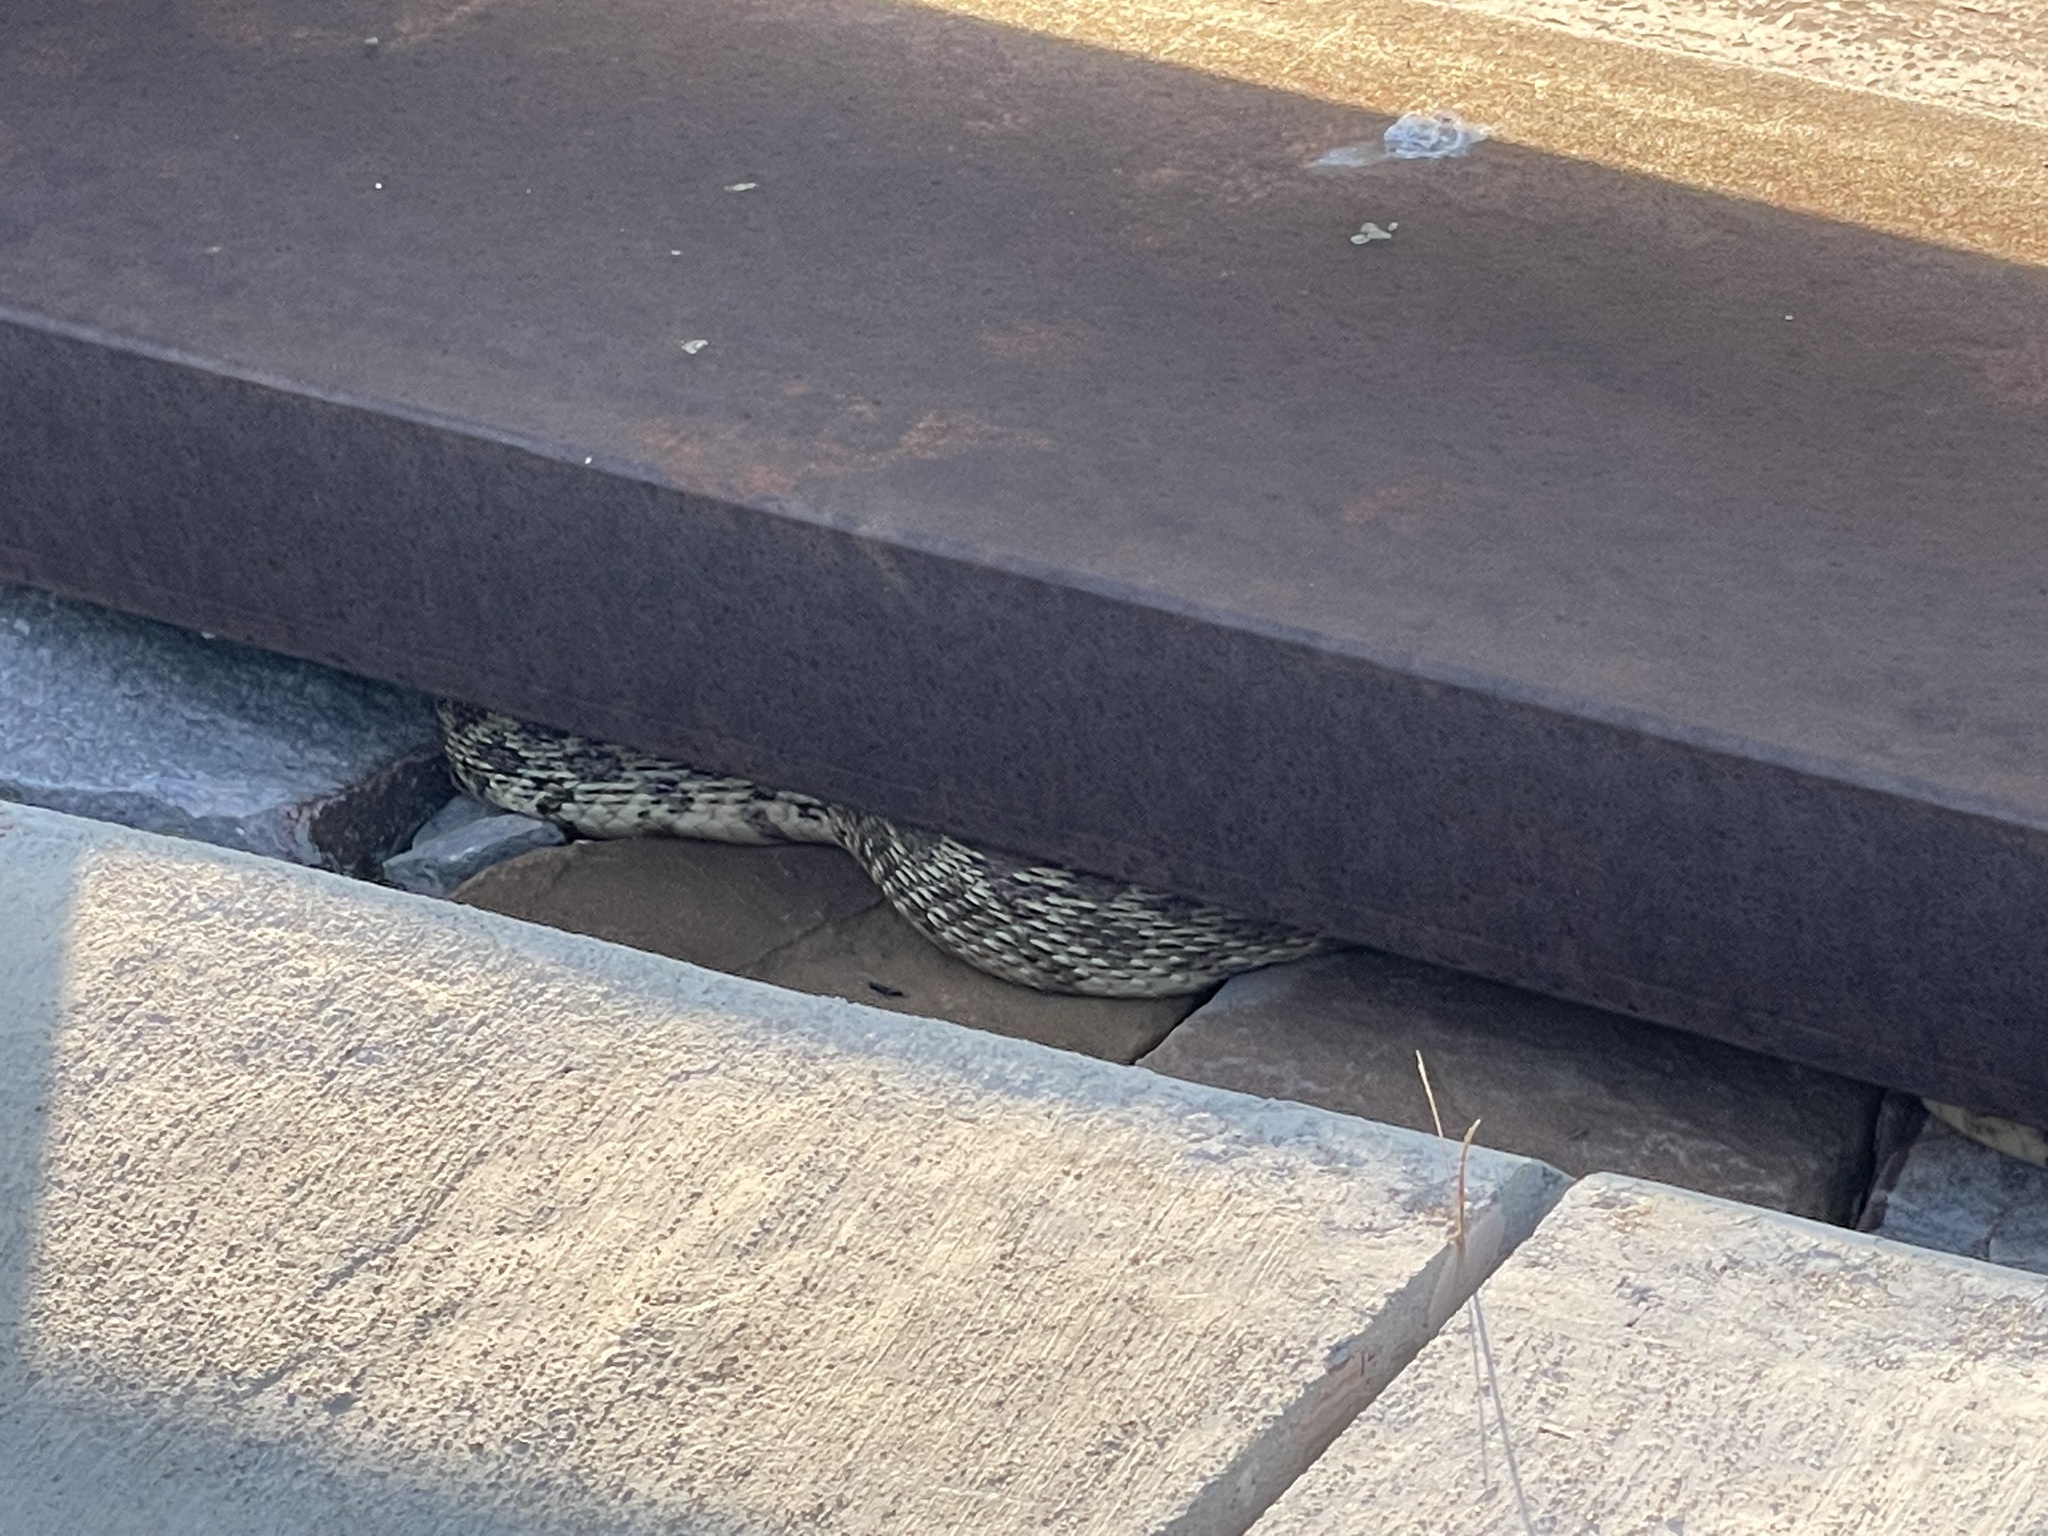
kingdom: Animalia
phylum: Chordata
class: Squamata
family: Colubridae
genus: Pituophis
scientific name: Pituophis catenifer
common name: Gopher snake
